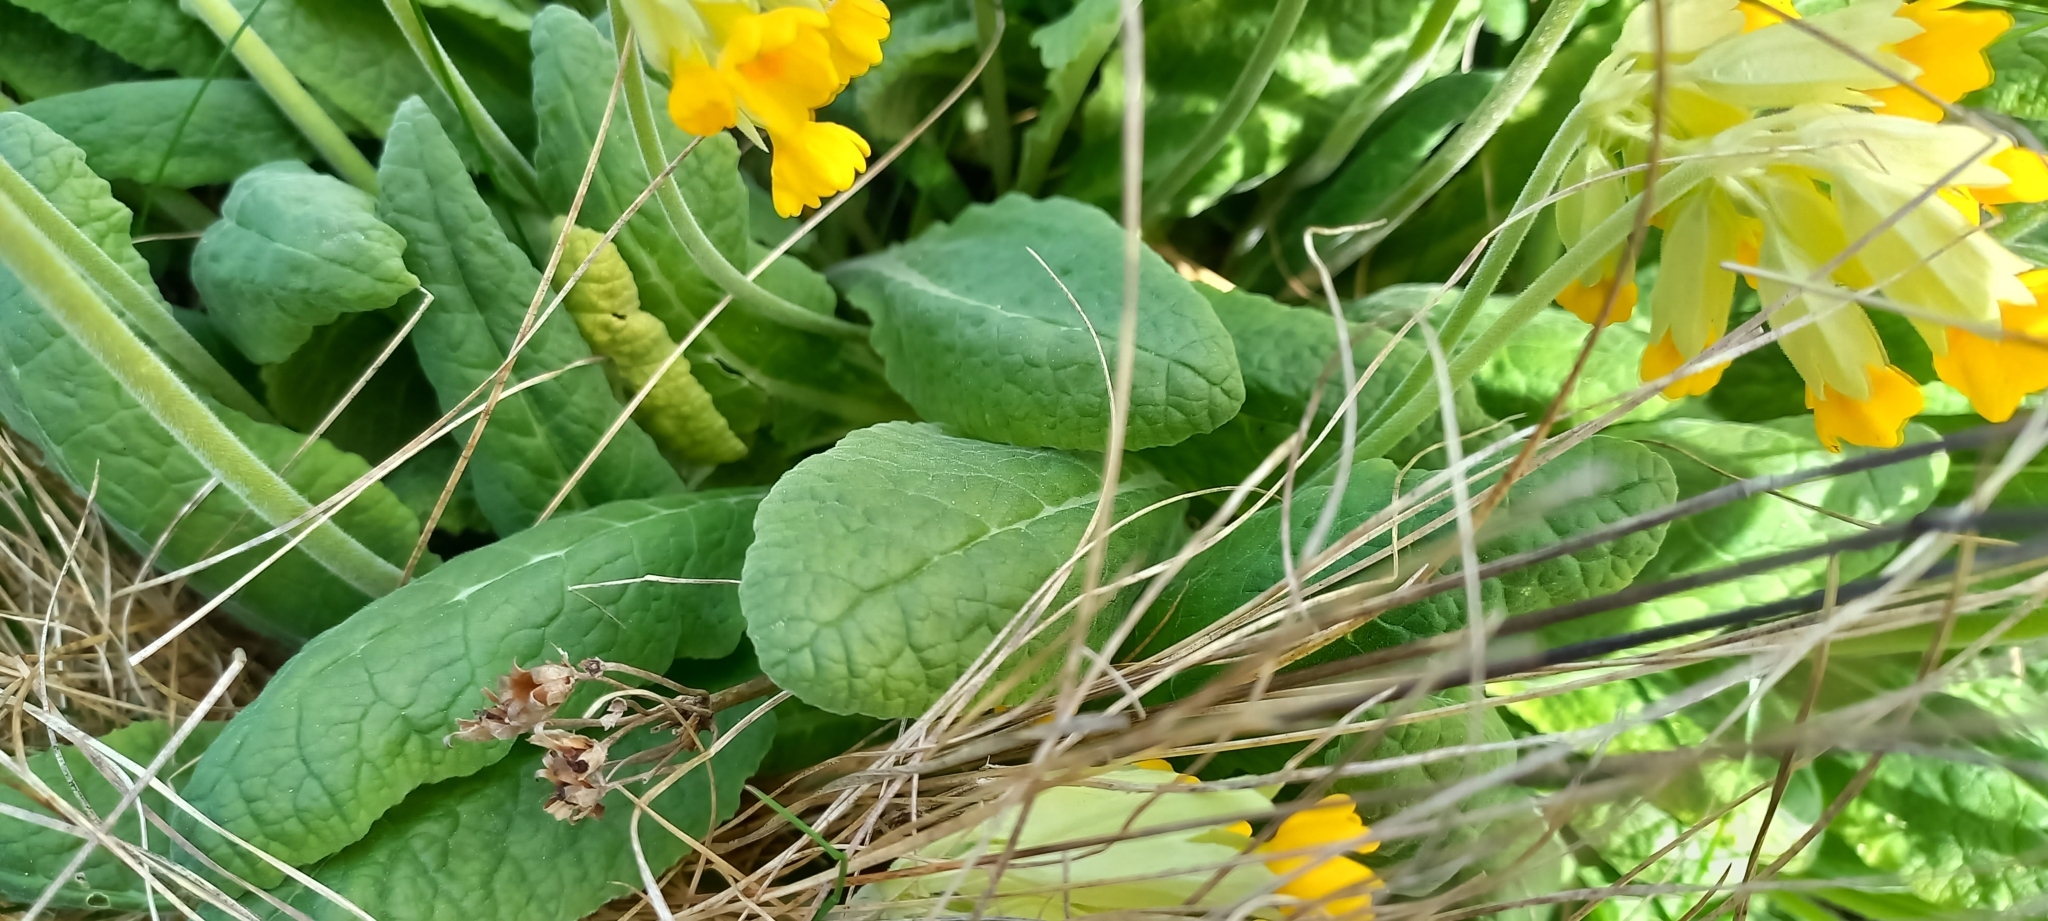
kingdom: Plantae
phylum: Tracheophyta
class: Magnoliopsida
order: Ericales
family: Primulaceae
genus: Primula
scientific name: Primula veris
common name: Cowslip
